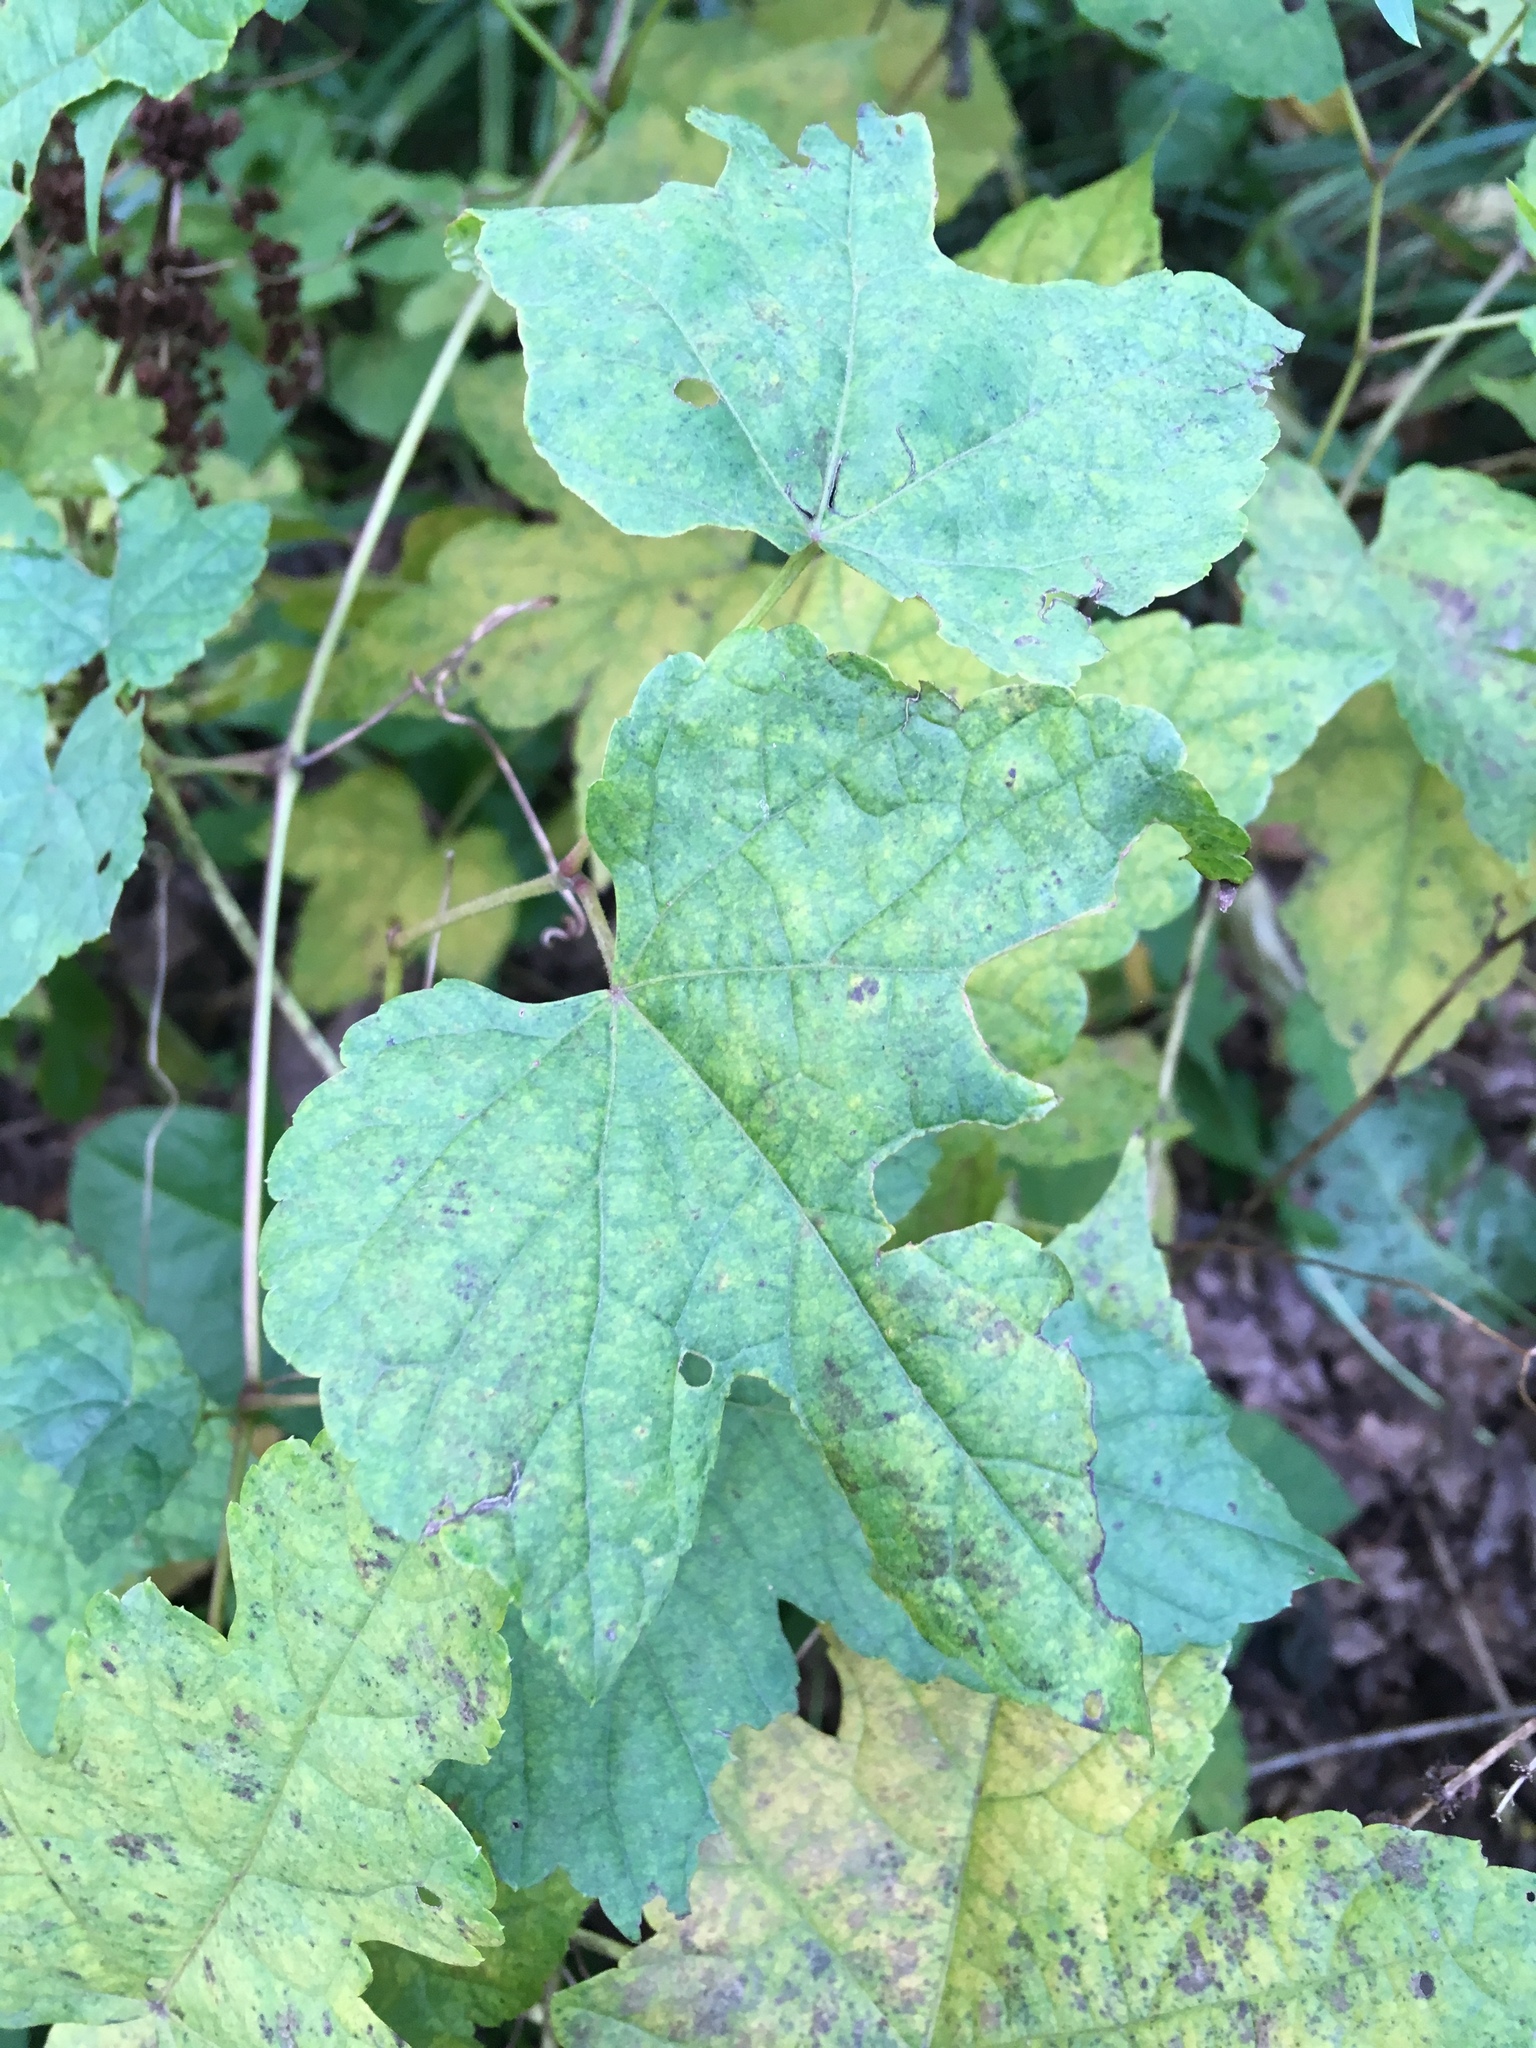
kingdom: Plantae
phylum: Tracheophyta
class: Magnoliopsida
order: Vitales
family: Vitaceae
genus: Ampelopsis
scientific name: Ampelopsis glandulosa
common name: Amur peppervine
